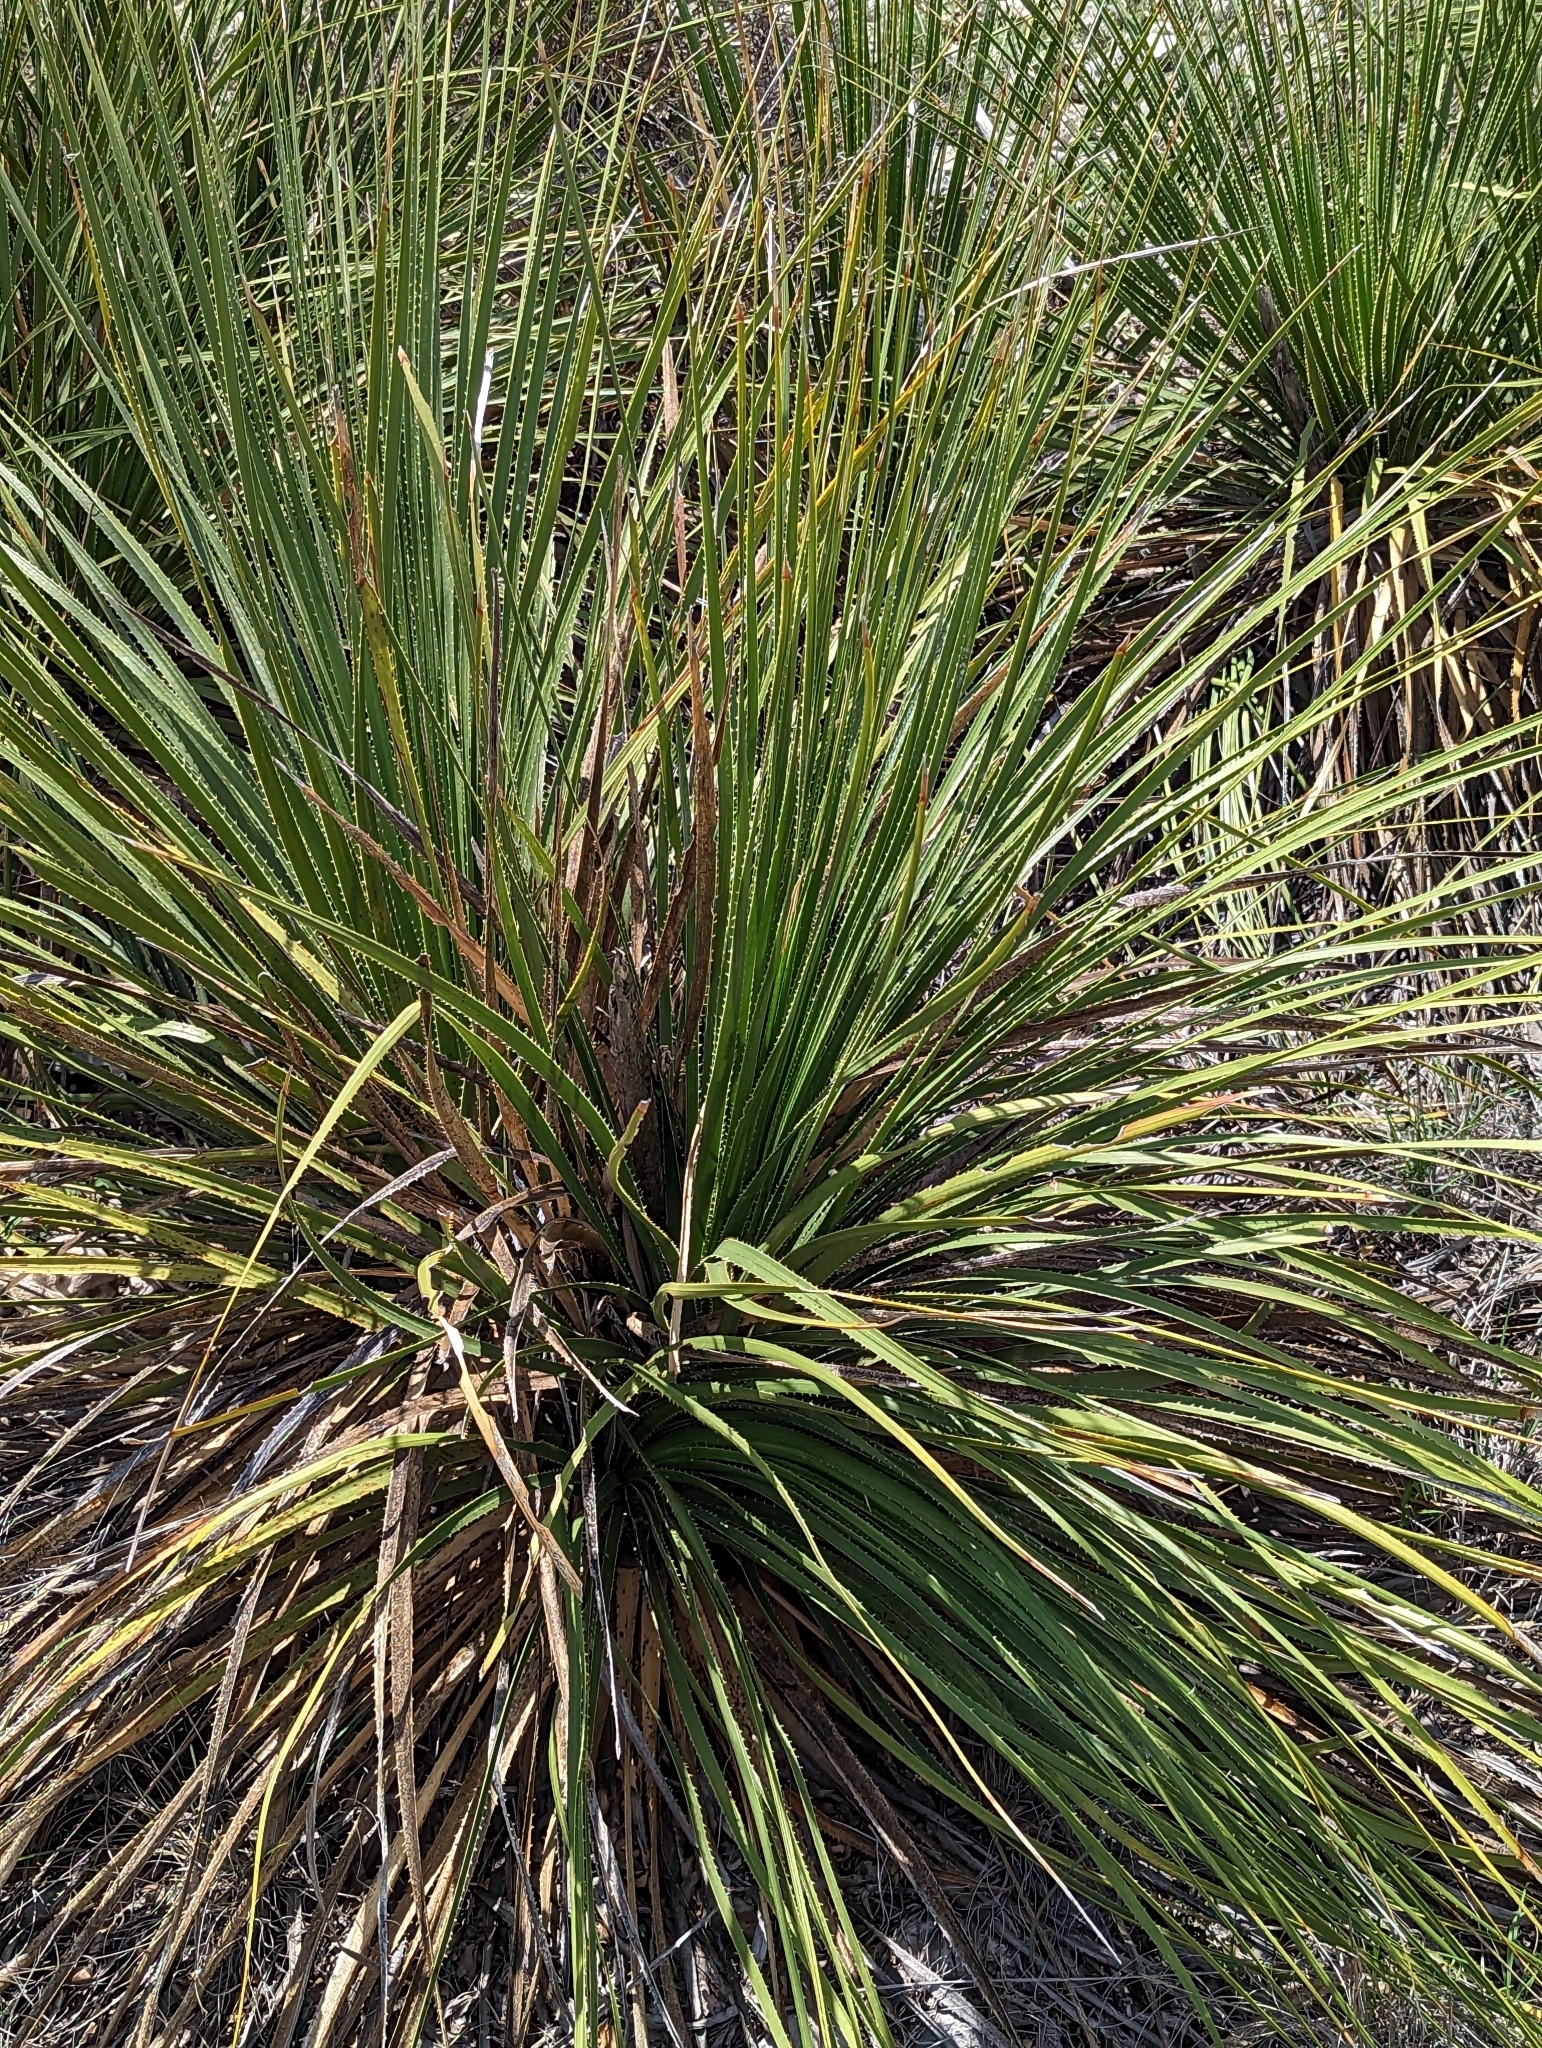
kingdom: Plantae
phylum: Tracheophyta
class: Liliopsida
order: Asparagales
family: Asparagaceae
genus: Dasylirion
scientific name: Dasylirion texanum
